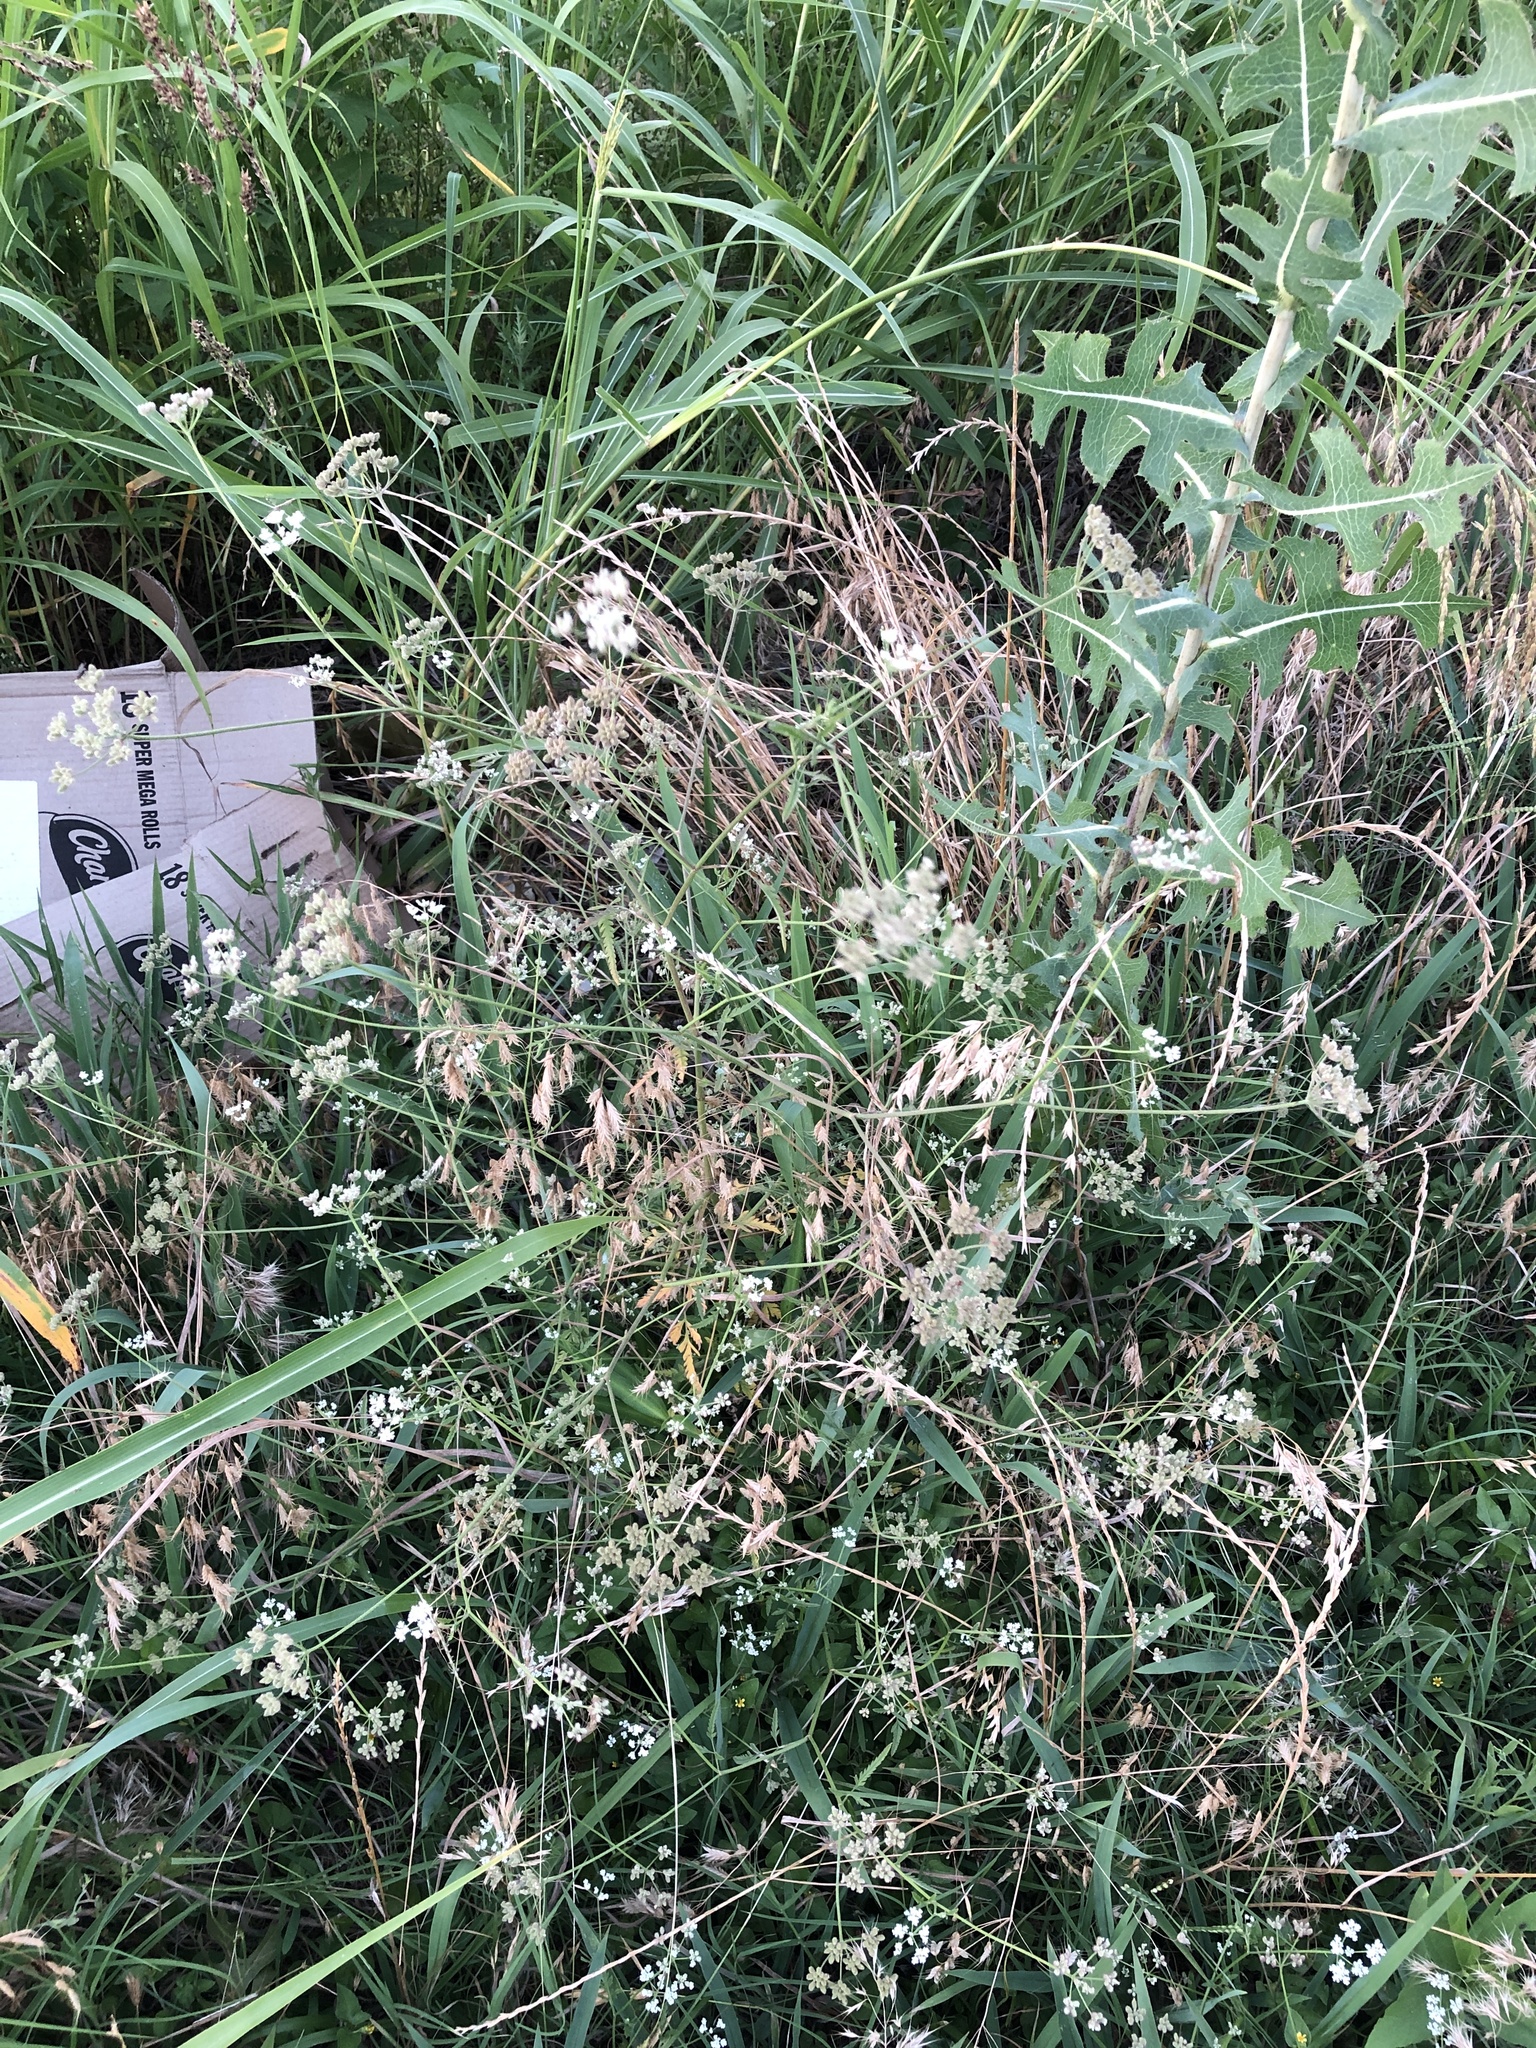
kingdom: Plantae
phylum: Tracheophyta
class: Magnoliopsida
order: Apiales
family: Apiaceae
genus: Torilis
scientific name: Torilis arvensis
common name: Spreading hedge-parsley
